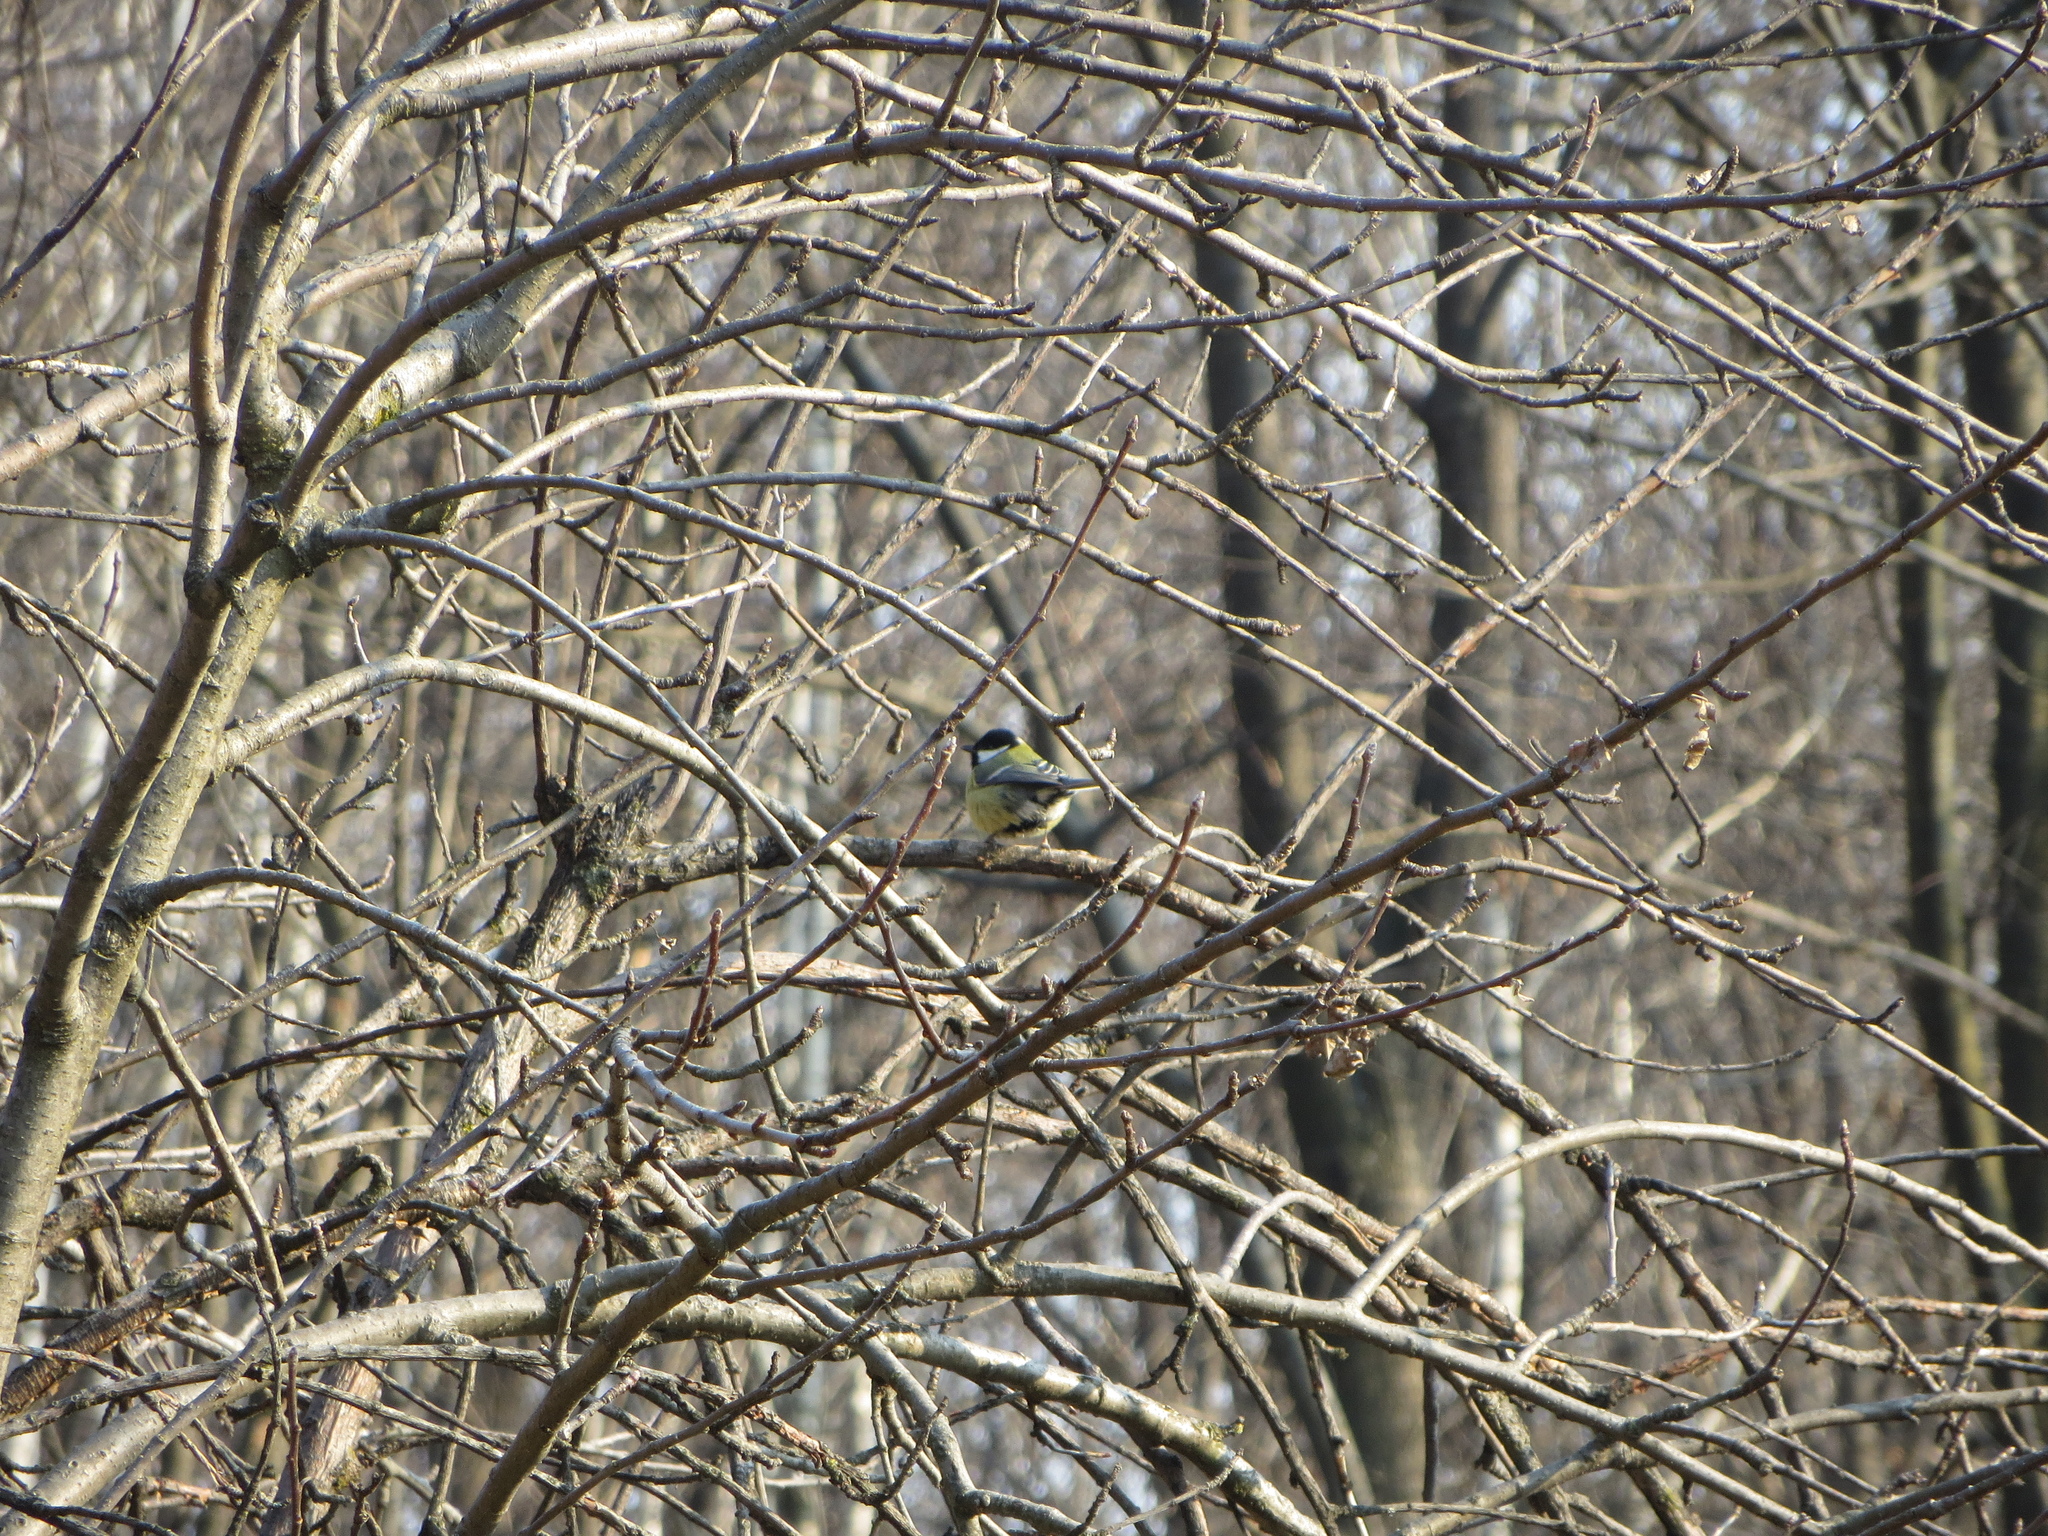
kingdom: Animalia
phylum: Chordata
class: Aves
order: Passeriformes
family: Paridae
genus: Parus
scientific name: Parus major
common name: Great tit
